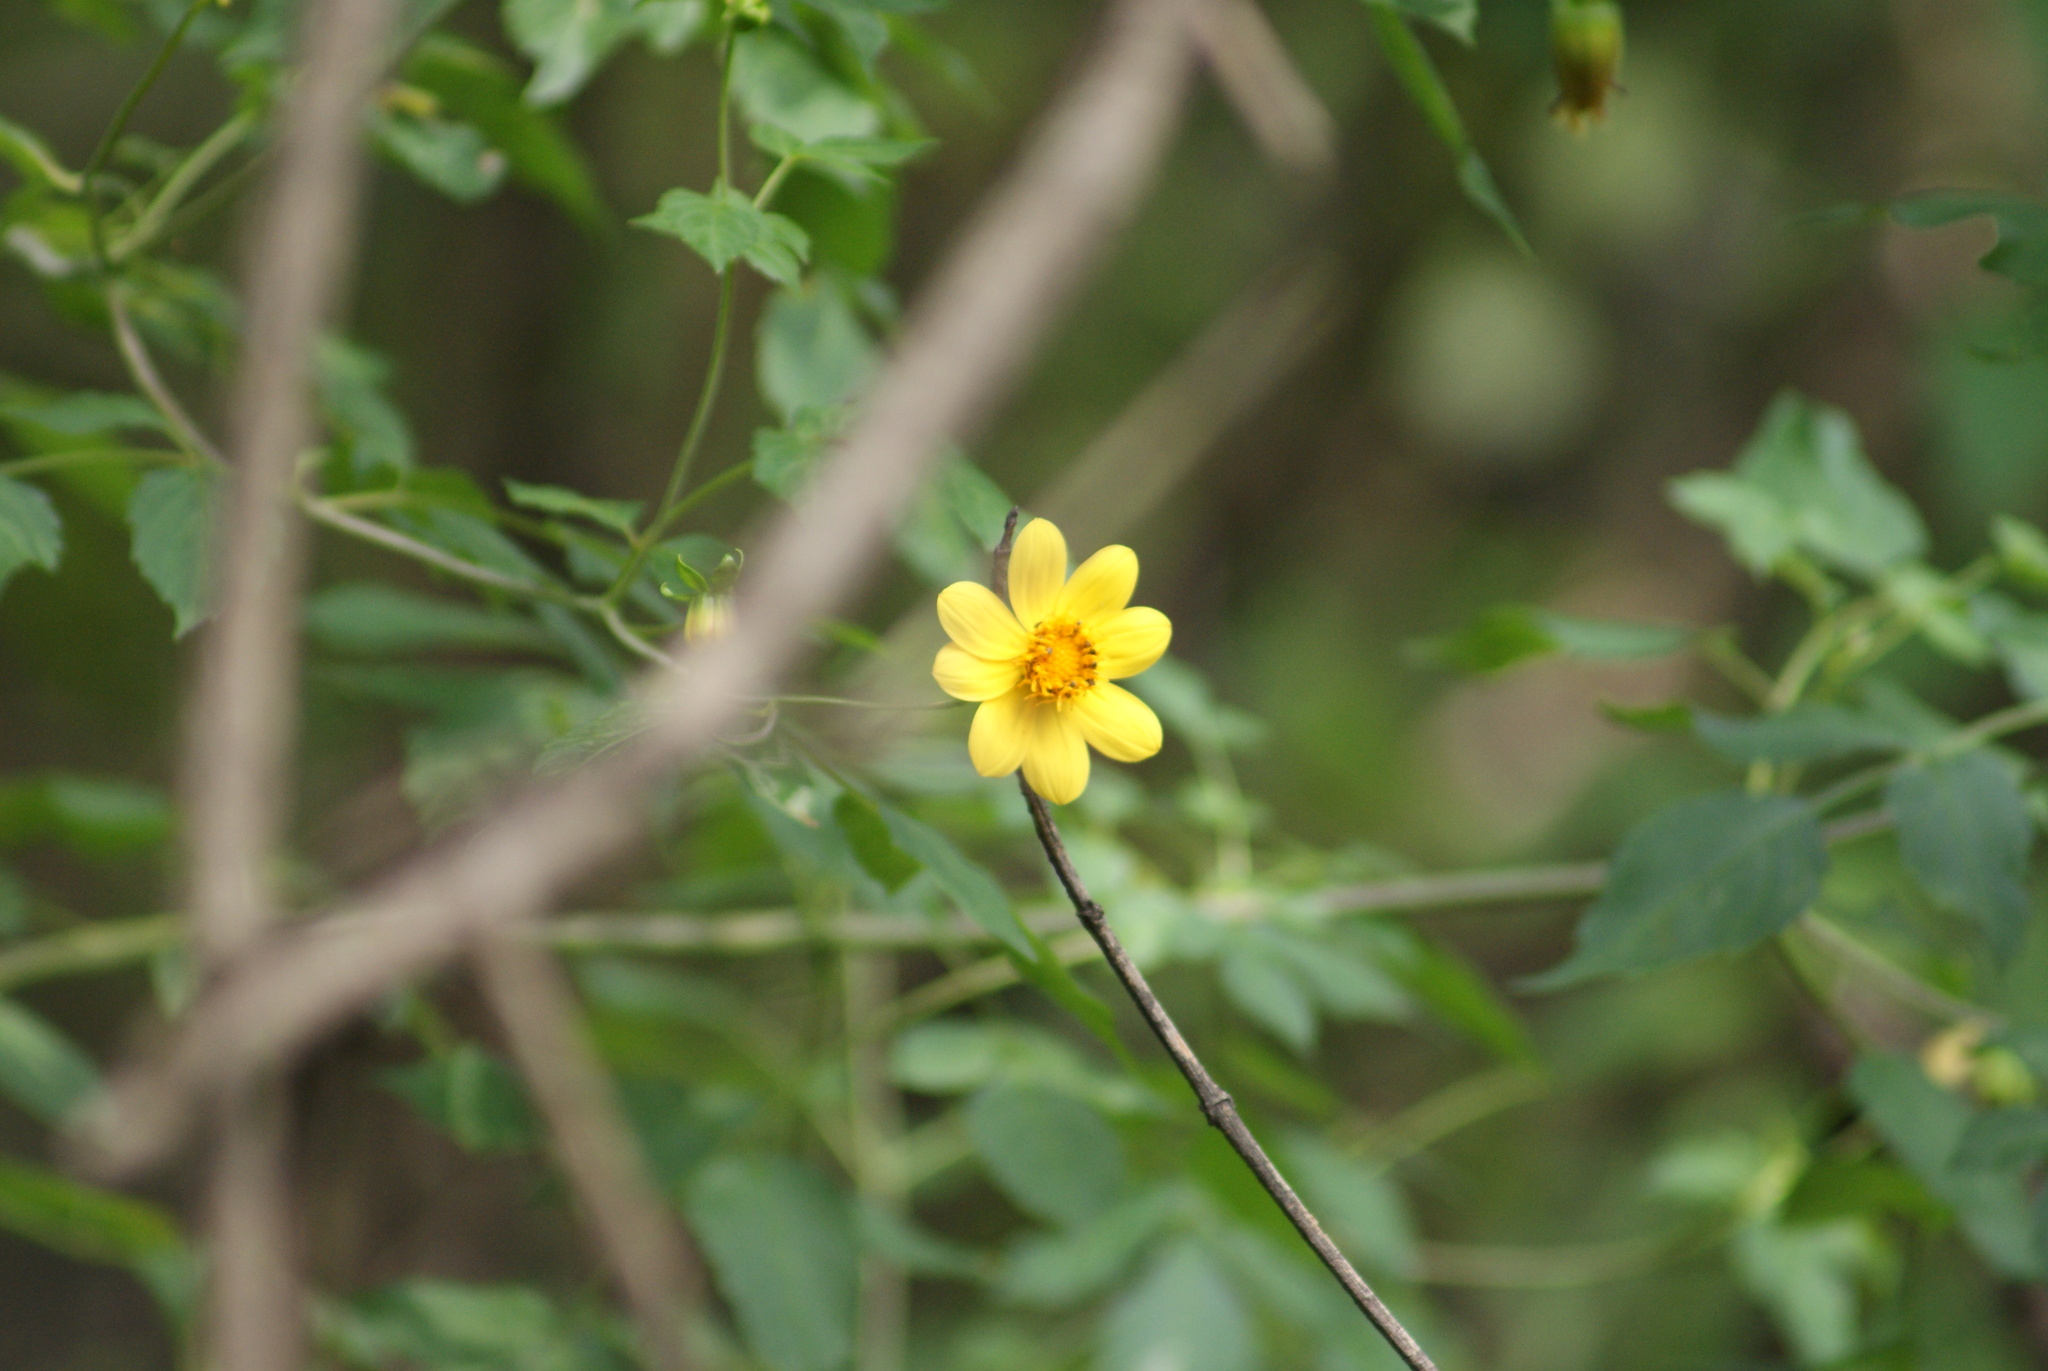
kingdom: Plantae
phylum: Tracheophyta
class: Magnoliopsida
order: Asterales
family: Asteraceae
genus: Dahlia
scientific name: Dahlia coccinea
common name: Red dahlia
